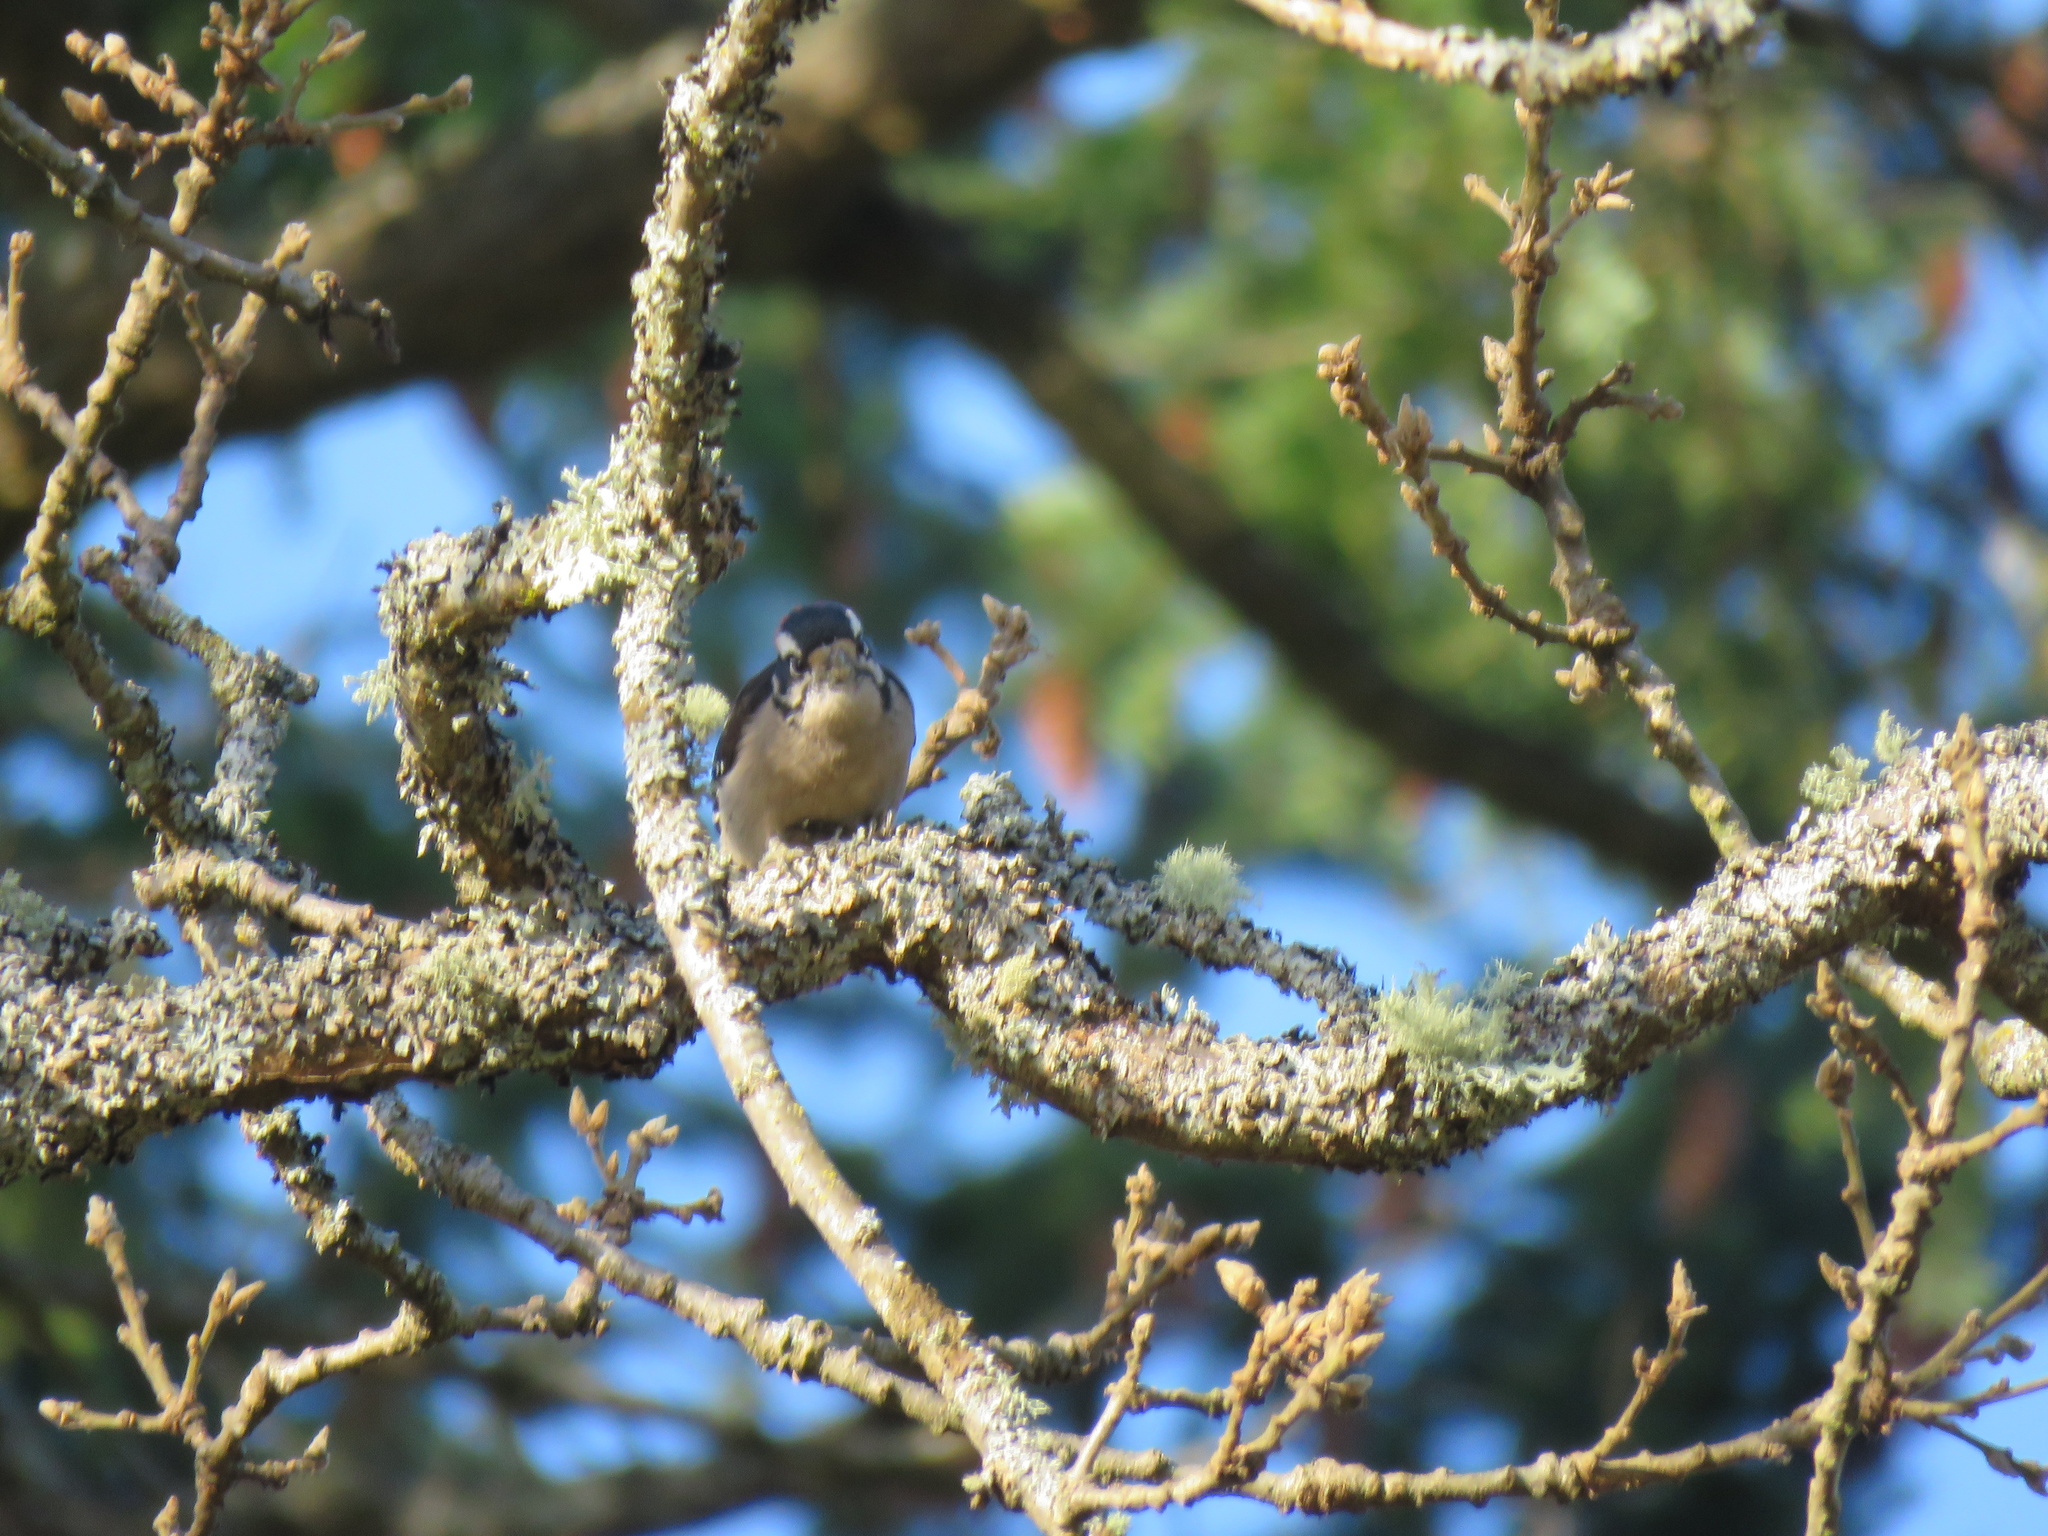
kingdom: Animalia
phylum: Chordata
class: Aves
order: Piciformes
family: Picidae
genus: Dryobates
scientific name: Dryobates pubescens
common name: Downy woodpecker
